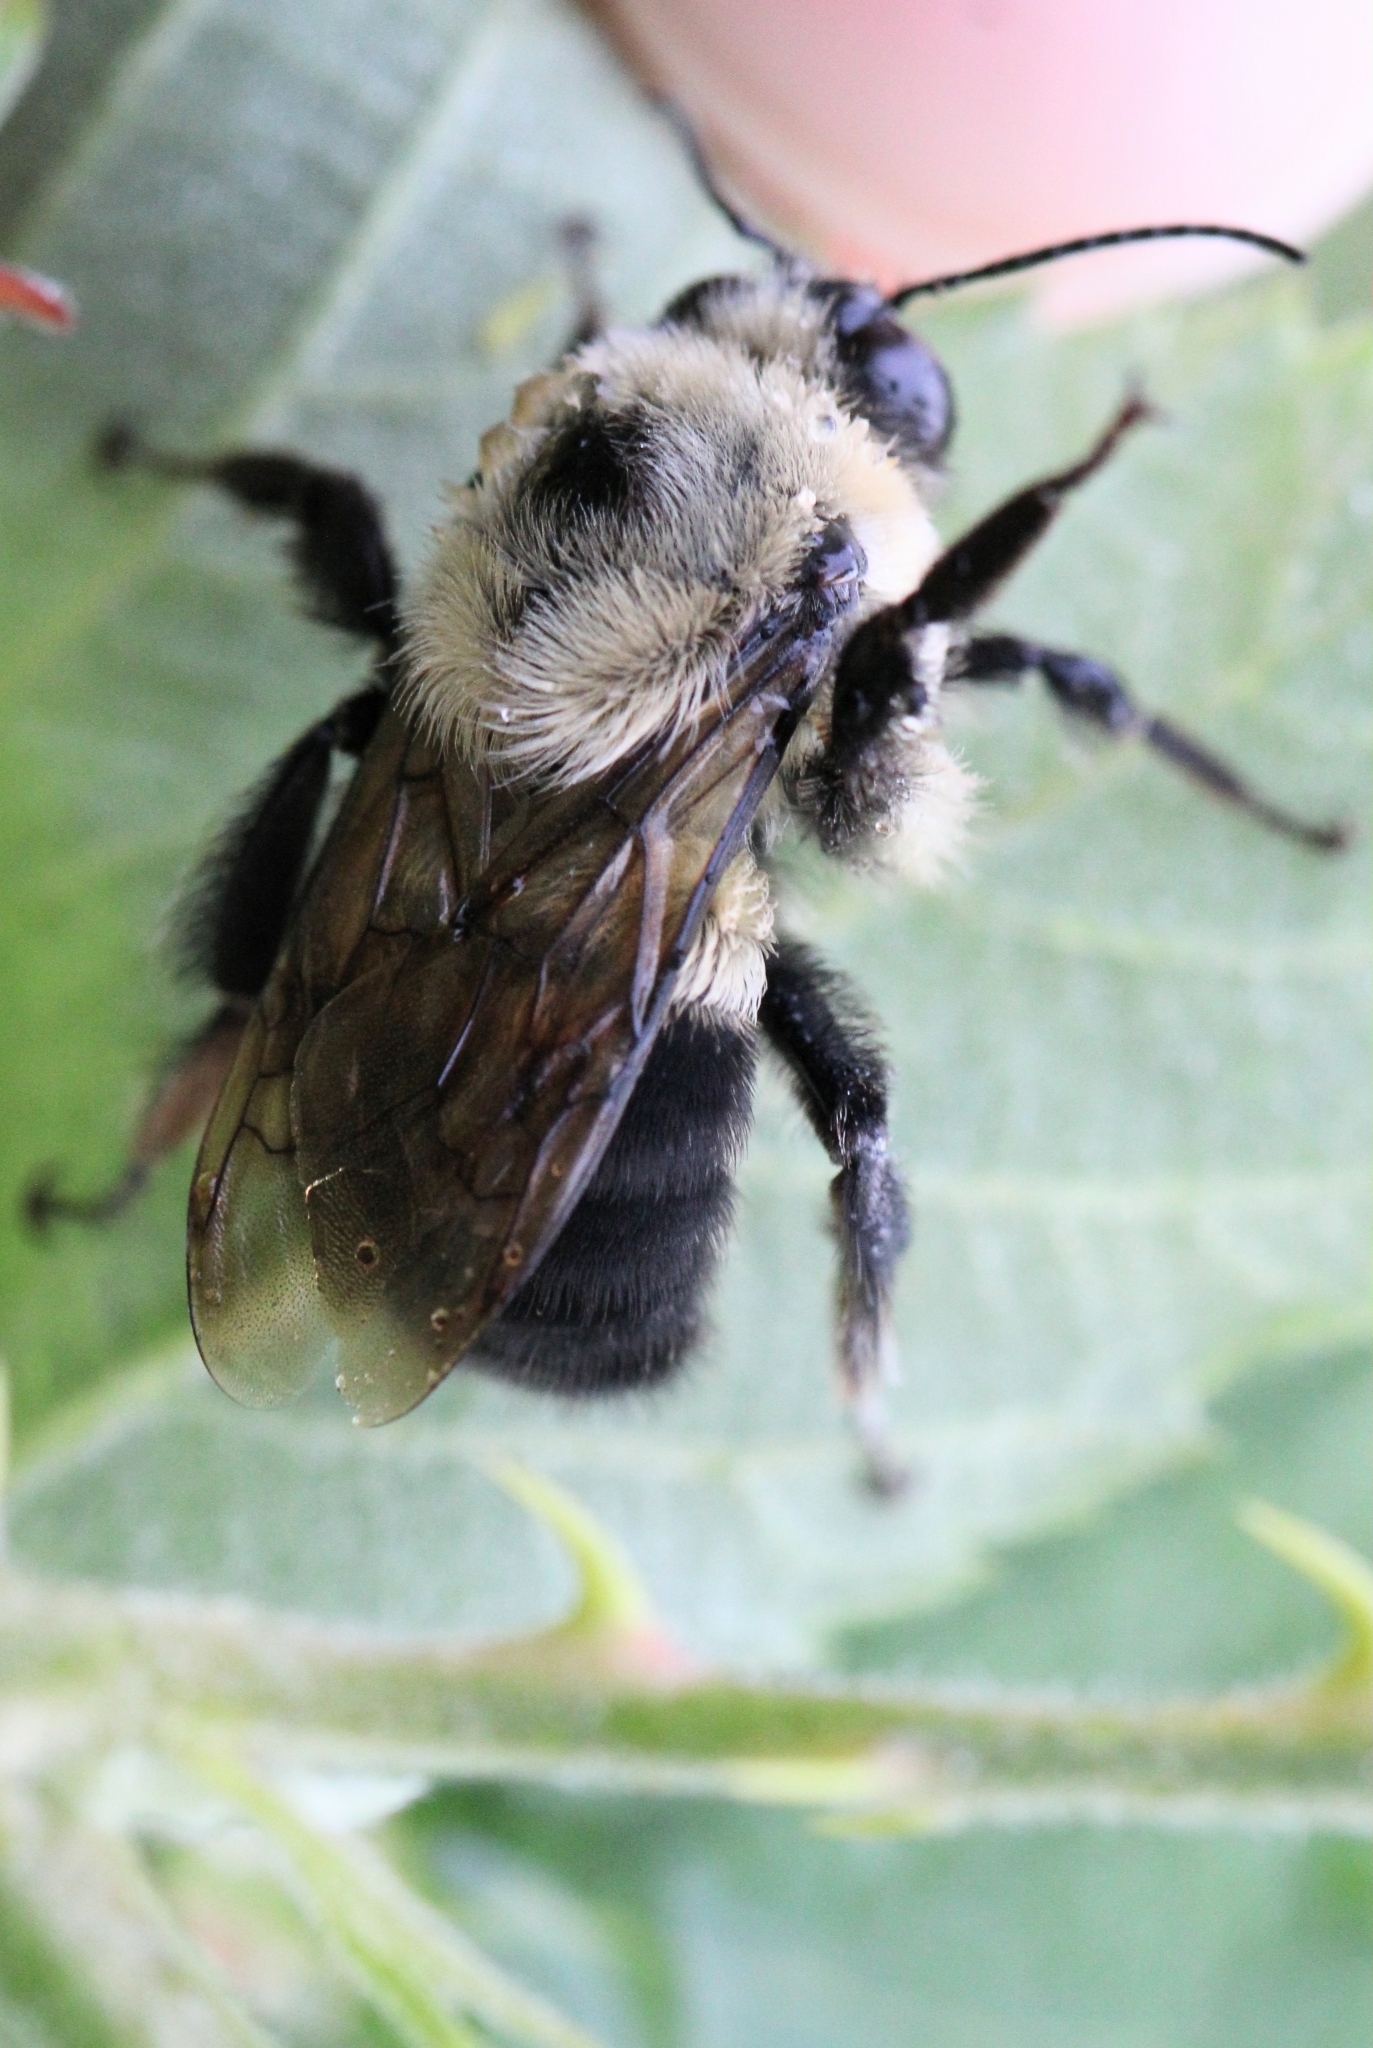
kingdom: Animalia
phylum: Arthropoda
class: Insecta
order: Hymenoptera
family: Apidae
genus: Bombus
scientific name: Bombus griseocollis
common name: Brown-belted bumble bee
